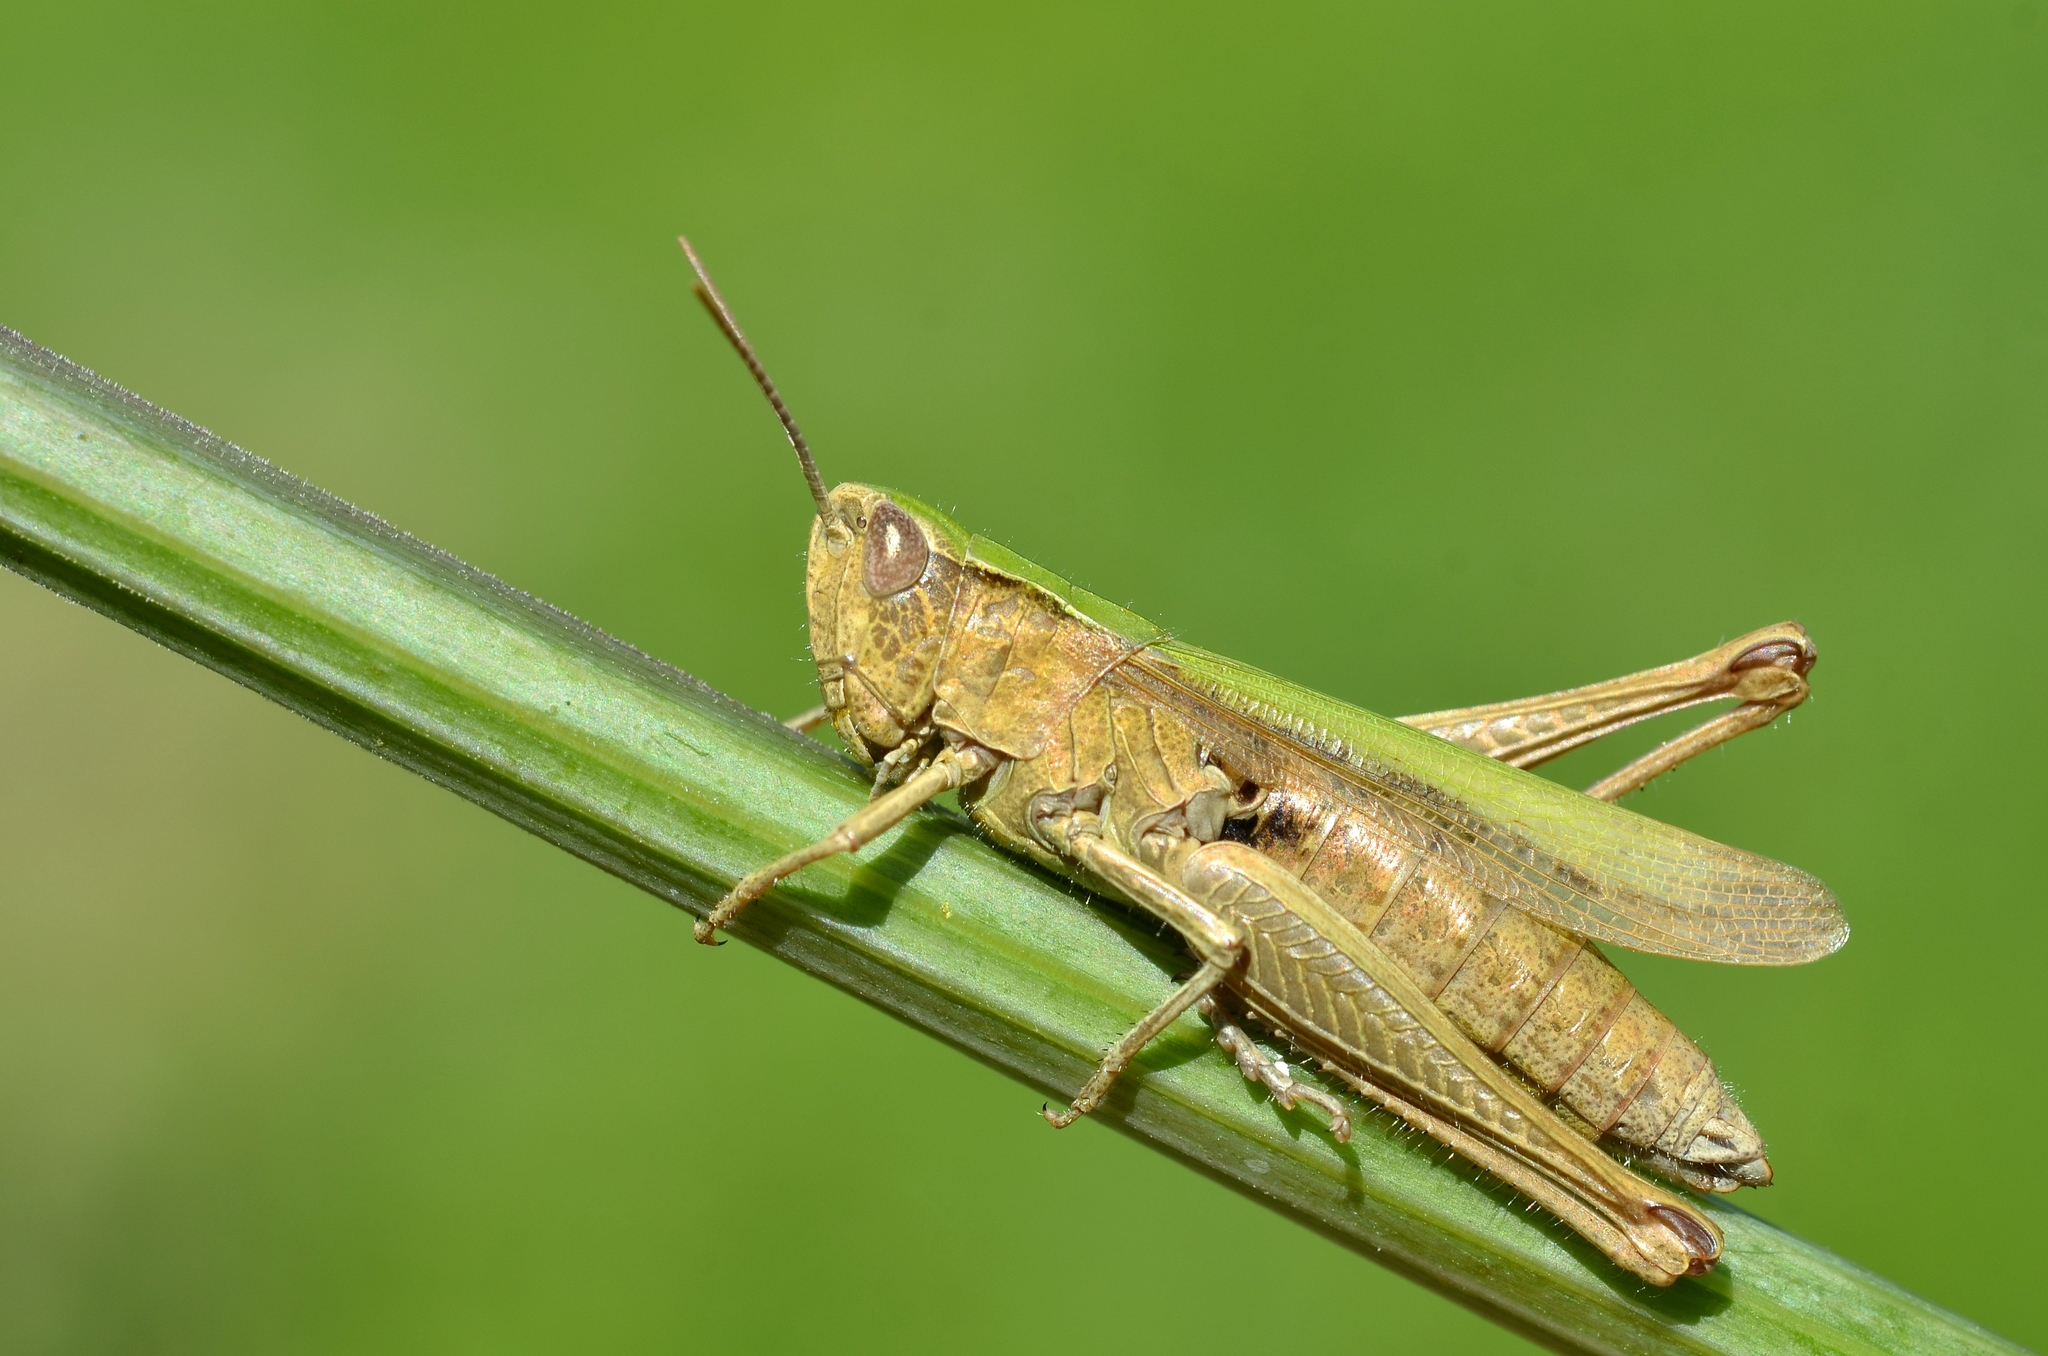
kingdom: Animalia
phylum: Arthropoda
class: Insecta
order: Orthoptera
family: Acrididae
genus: Chorthippus
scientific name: Chorthippus dorsatus
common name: Steppe grasshopper
